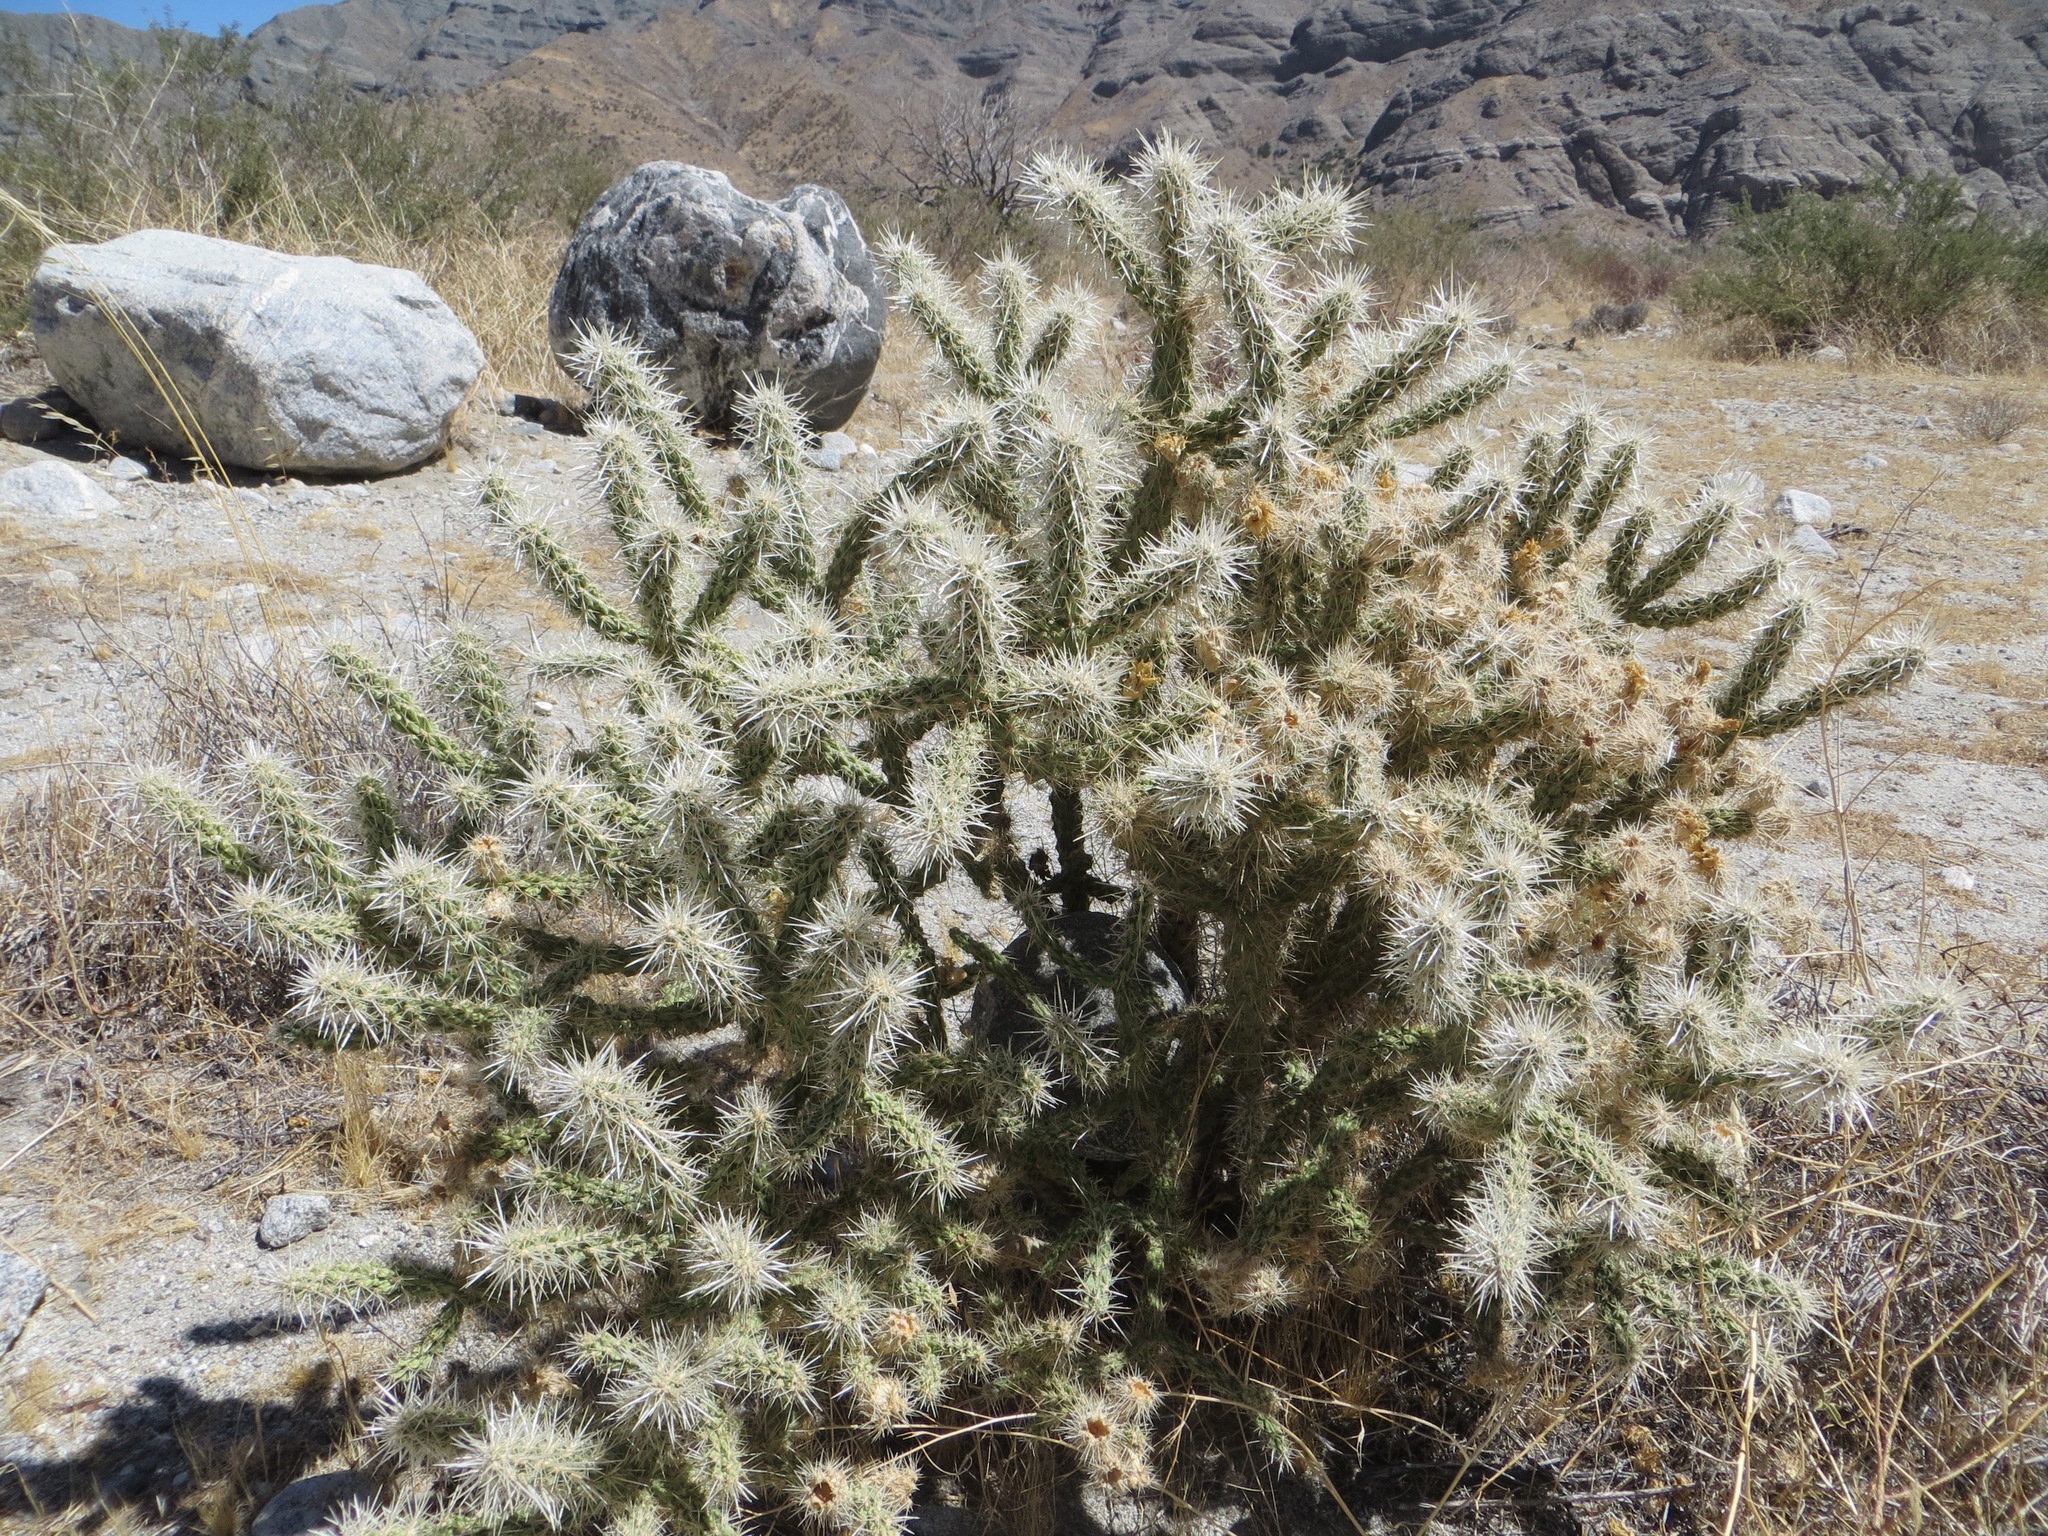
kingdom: Plantae
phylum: Tracheophyta
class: Magnoliopsida
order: Caryophyllales
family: Cactaceae
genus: Cylindropuntia
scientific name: Cylindropuntia echinocarpa
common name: Ground cholla
